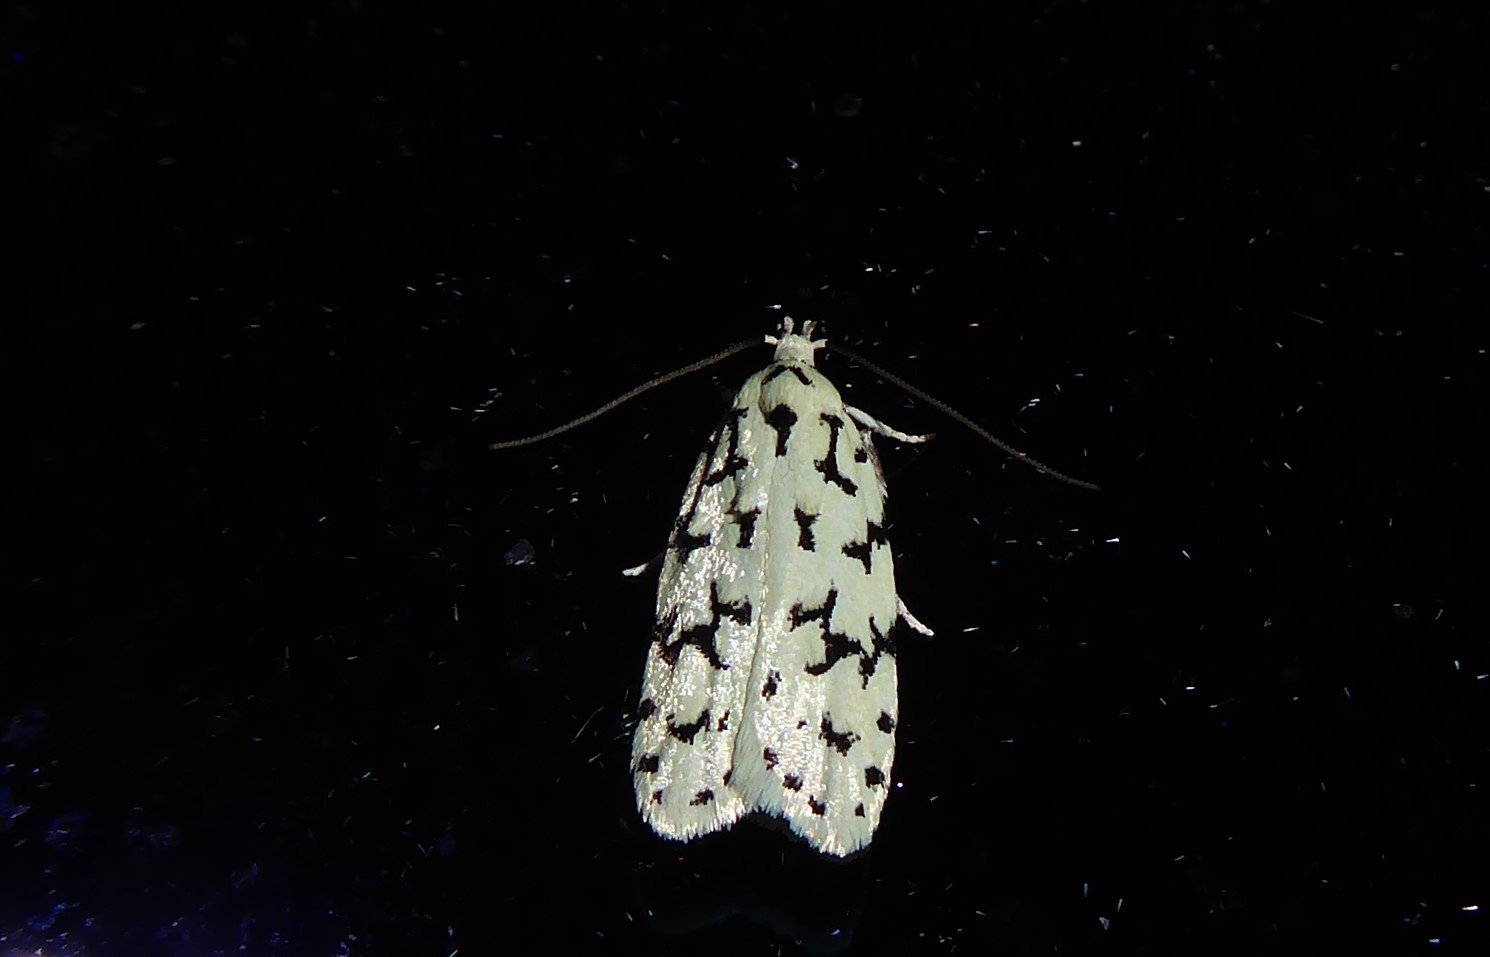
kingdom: Animalia
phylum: Arthropoda
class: Insecta
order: Lepidoptera
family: Oecophoridae
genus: Izatha
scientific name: Izatha huttoni
